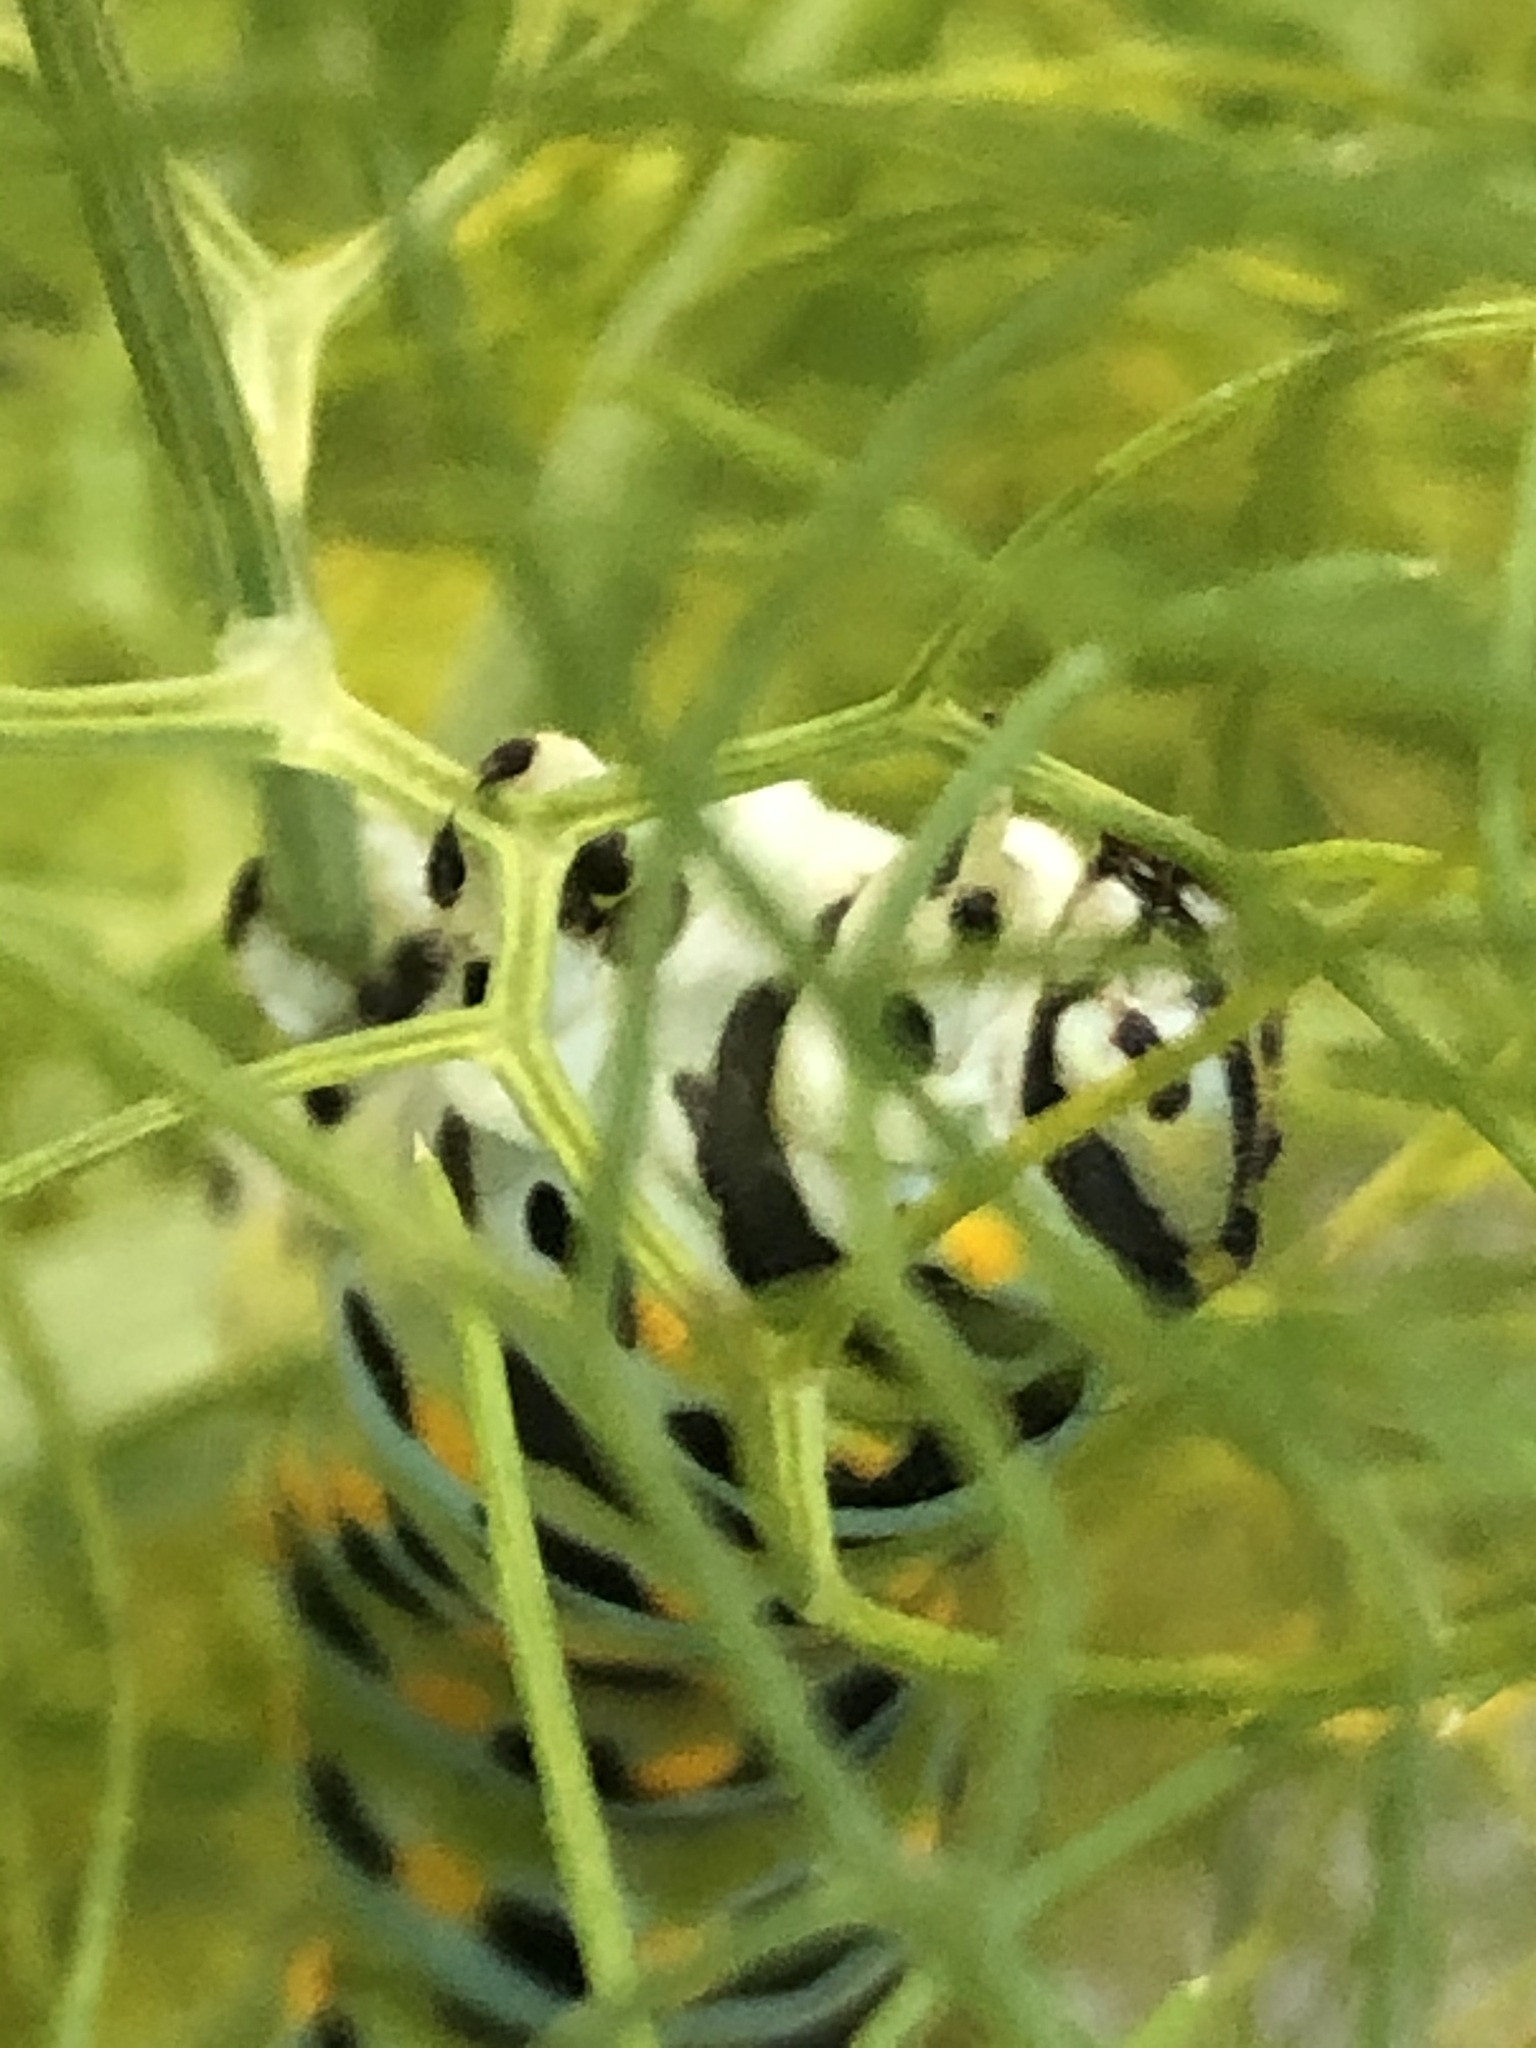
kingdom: Animalia
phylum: Arthropoda
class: Insecta
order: Lepidoptera
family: Papilionidae
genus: Papilio
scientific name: Papilio zelicaon
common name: Anise swallowtail
